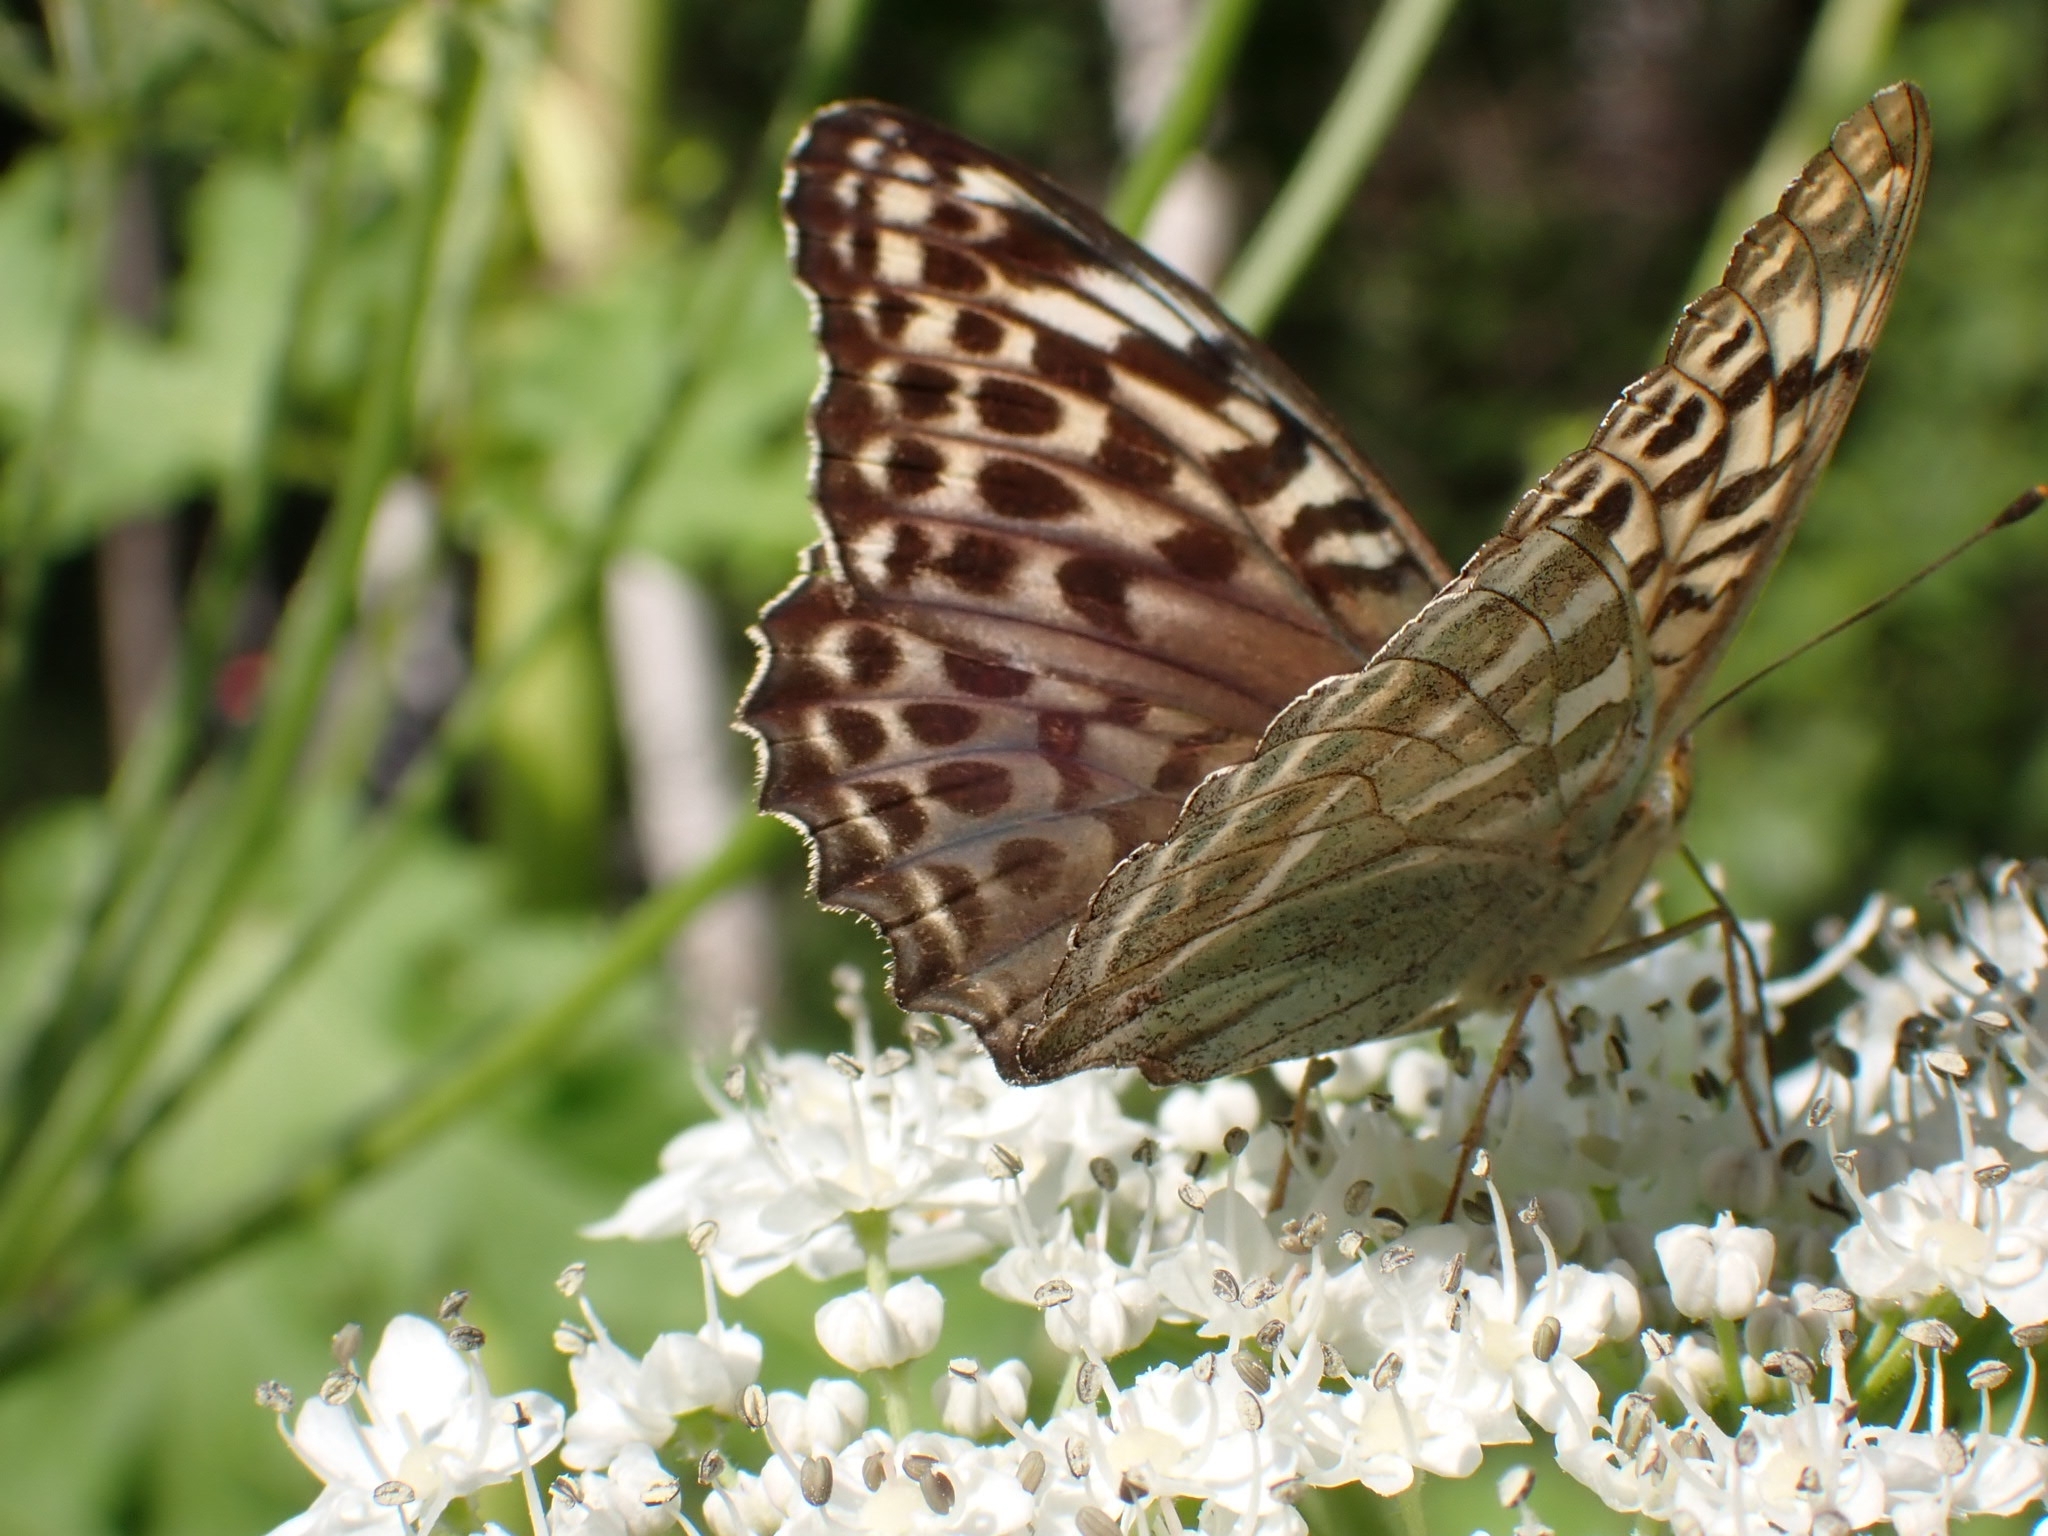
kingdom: Animalia
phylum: Arthropoda
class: Insecta
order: Lepidoptera
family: Nymphalidae
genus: Argynnis
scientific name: Argynnis paphia
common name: Silver-washed fritillary
